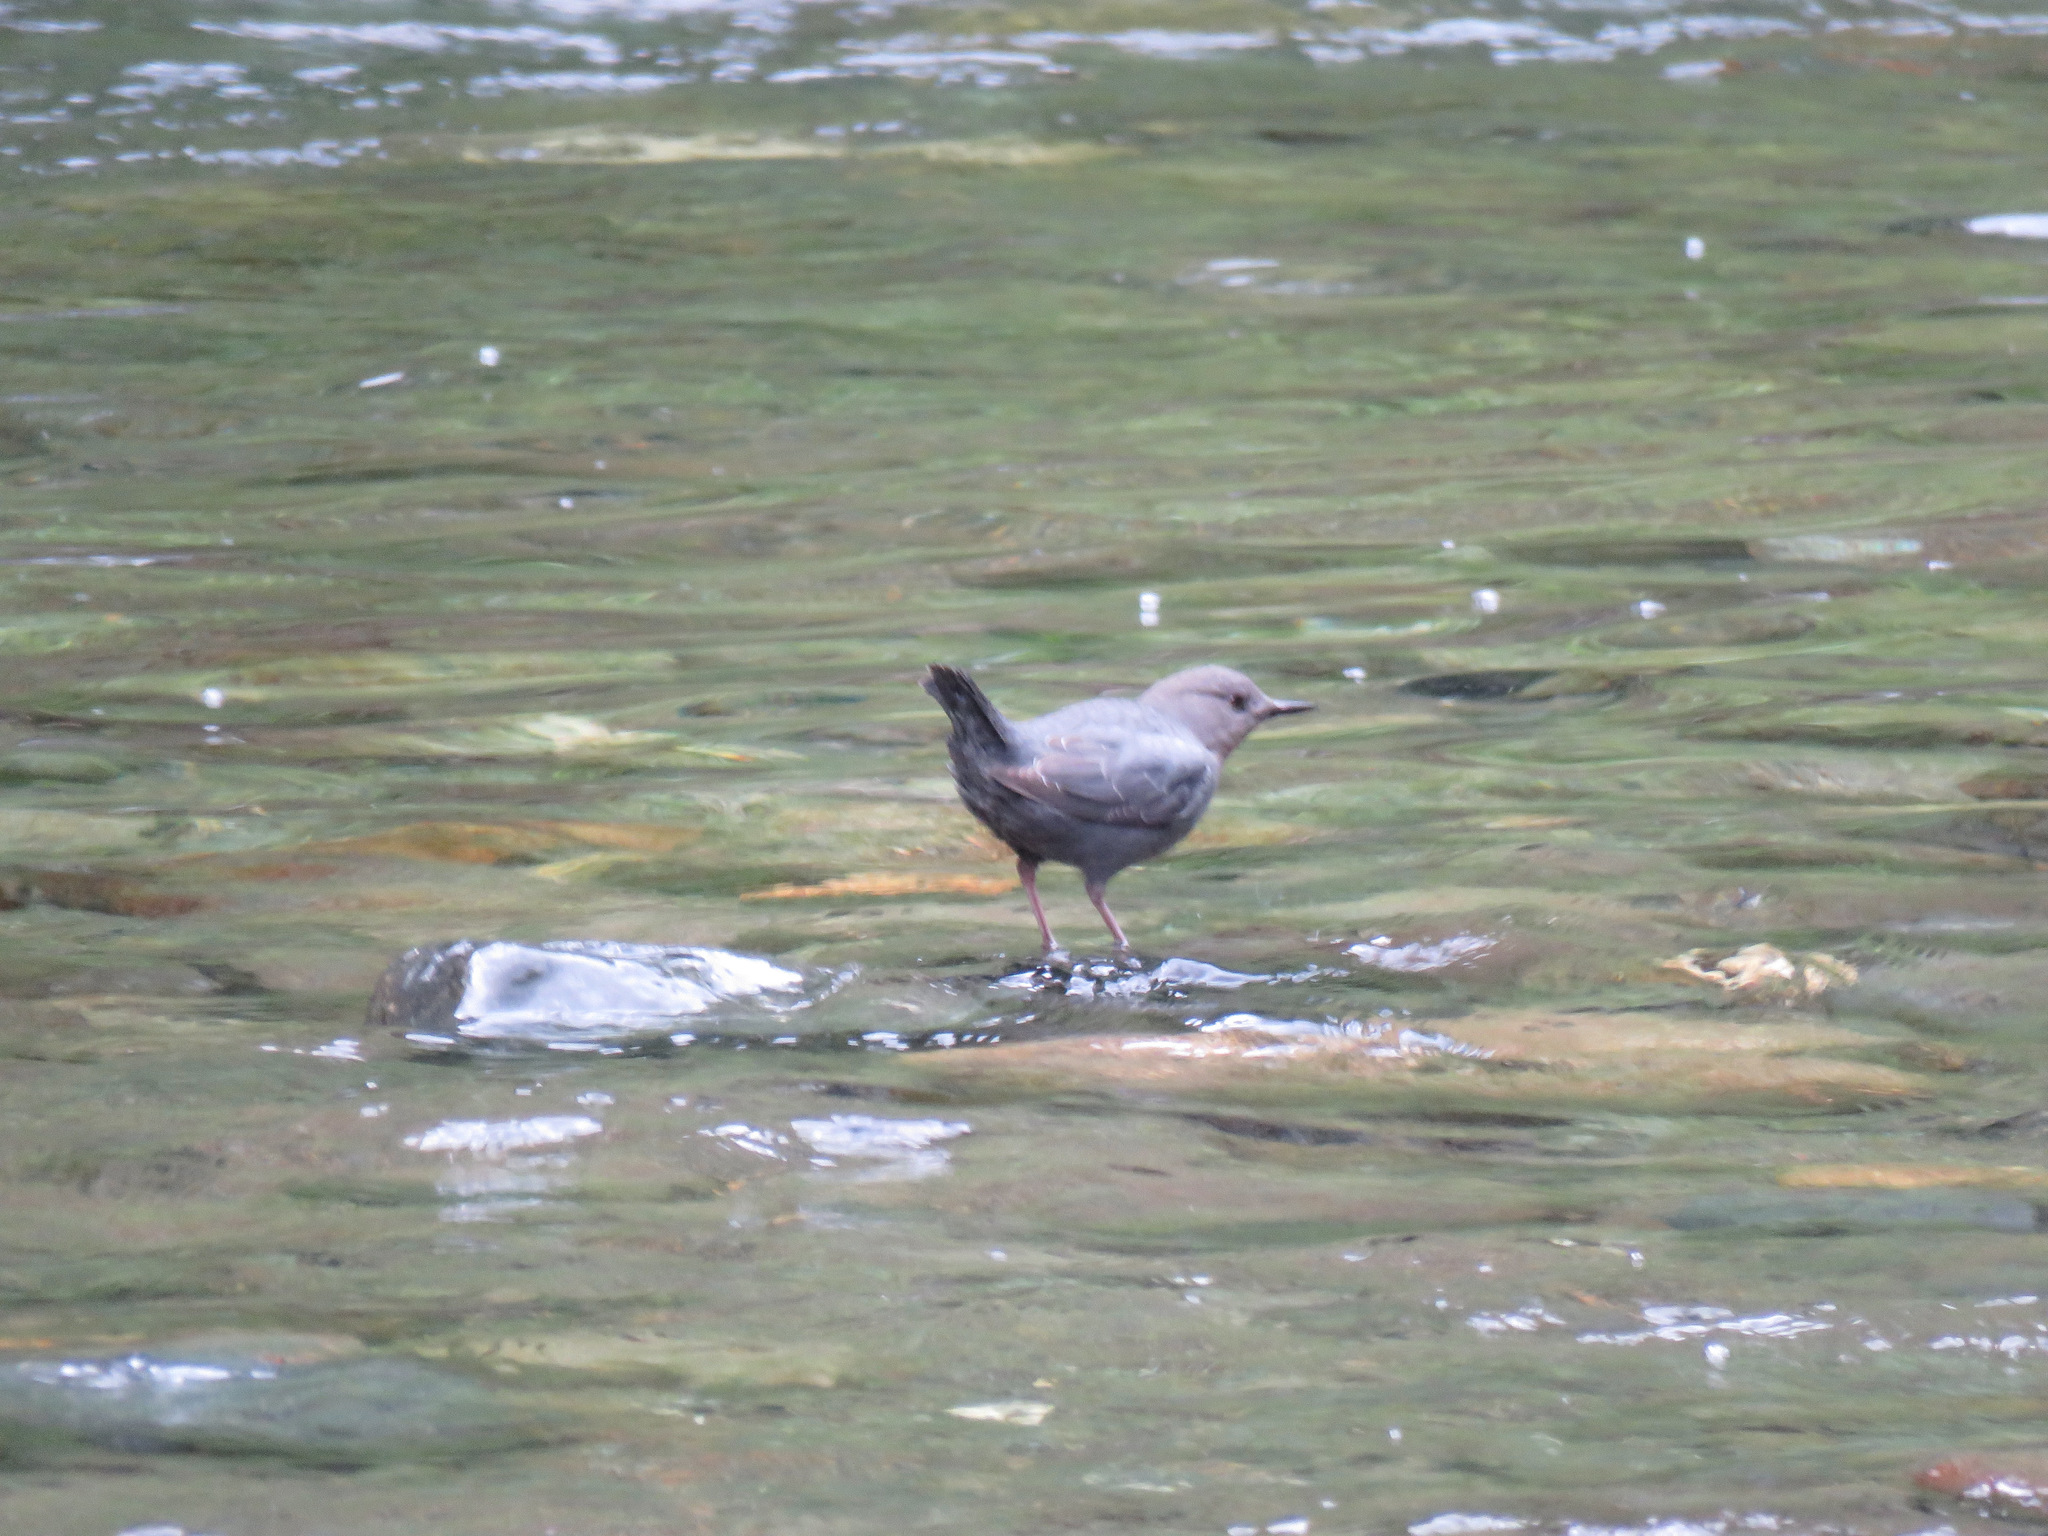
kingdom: Animalia
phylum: Chordata
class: Aves
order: Passeriformes
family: Cinclidae
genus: Cinclus
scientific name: Cinclus mexicanus
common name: American dipper
